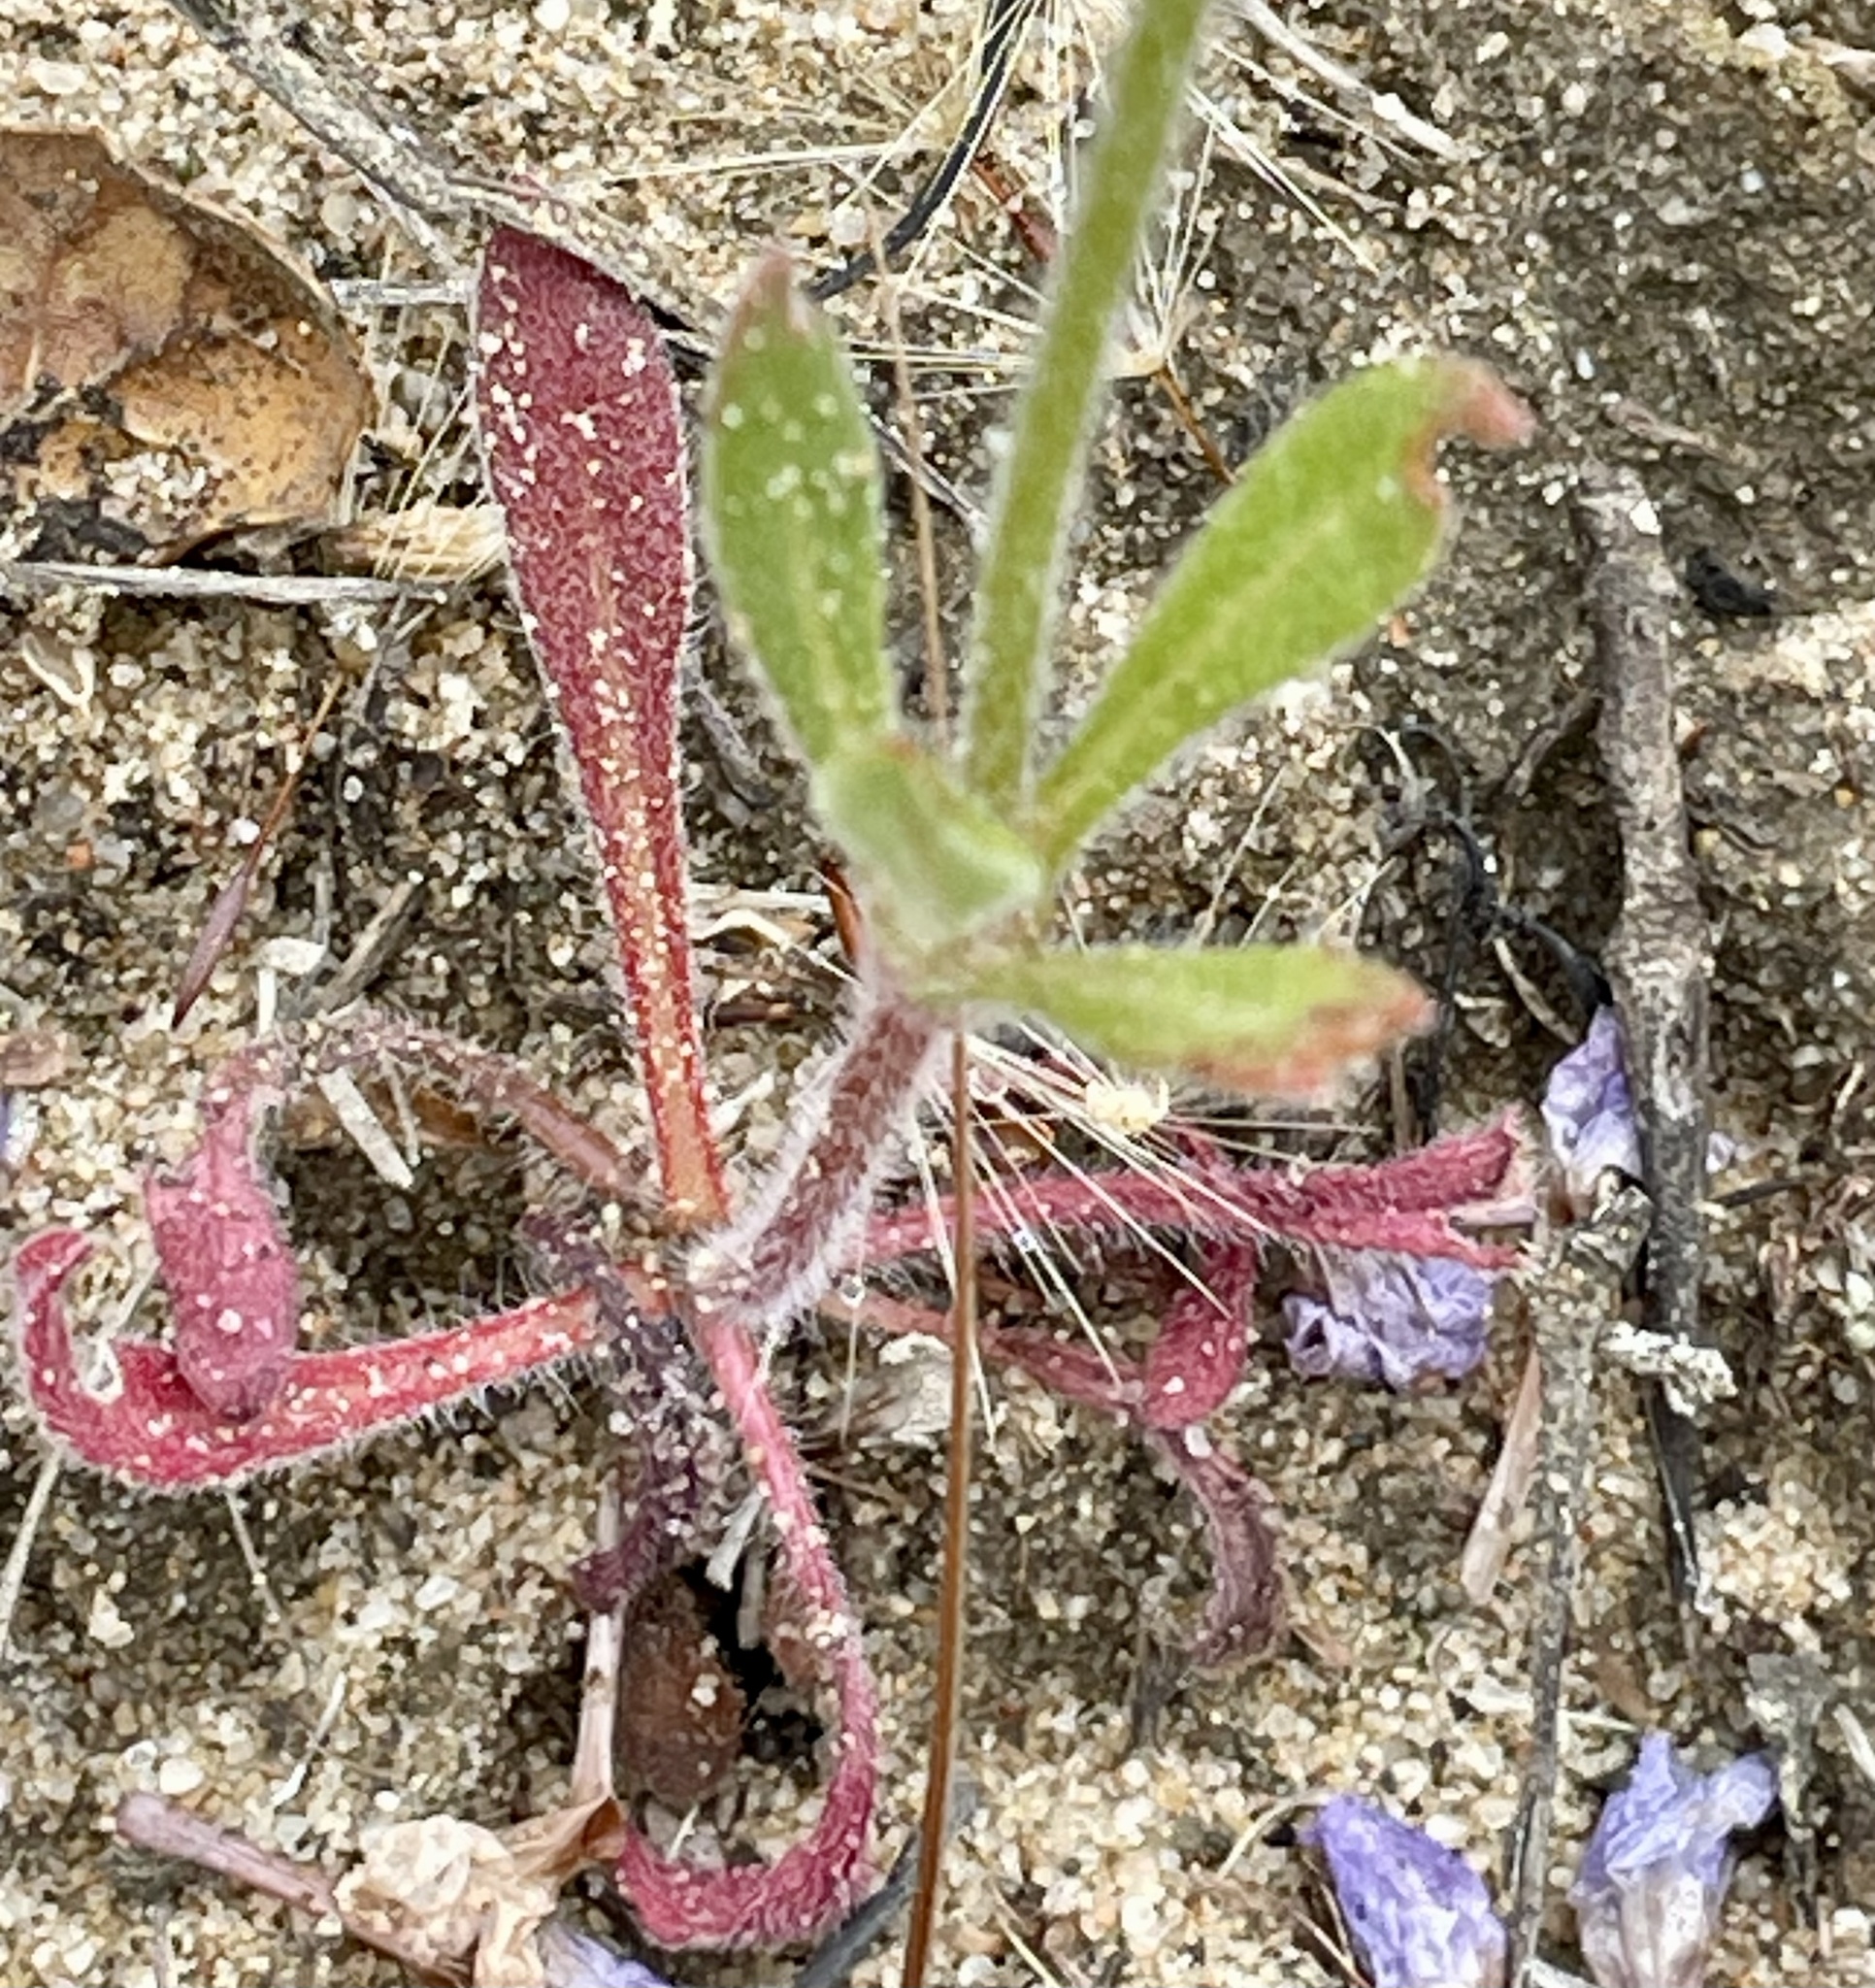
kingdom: Plantae
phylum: Tracheophyta
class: Magnoliopsida
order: Caryophyllales
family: Polygonaceae
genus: Chorizanthe
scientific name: Chorizanthe douglasii
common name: Douglas's spineflower
